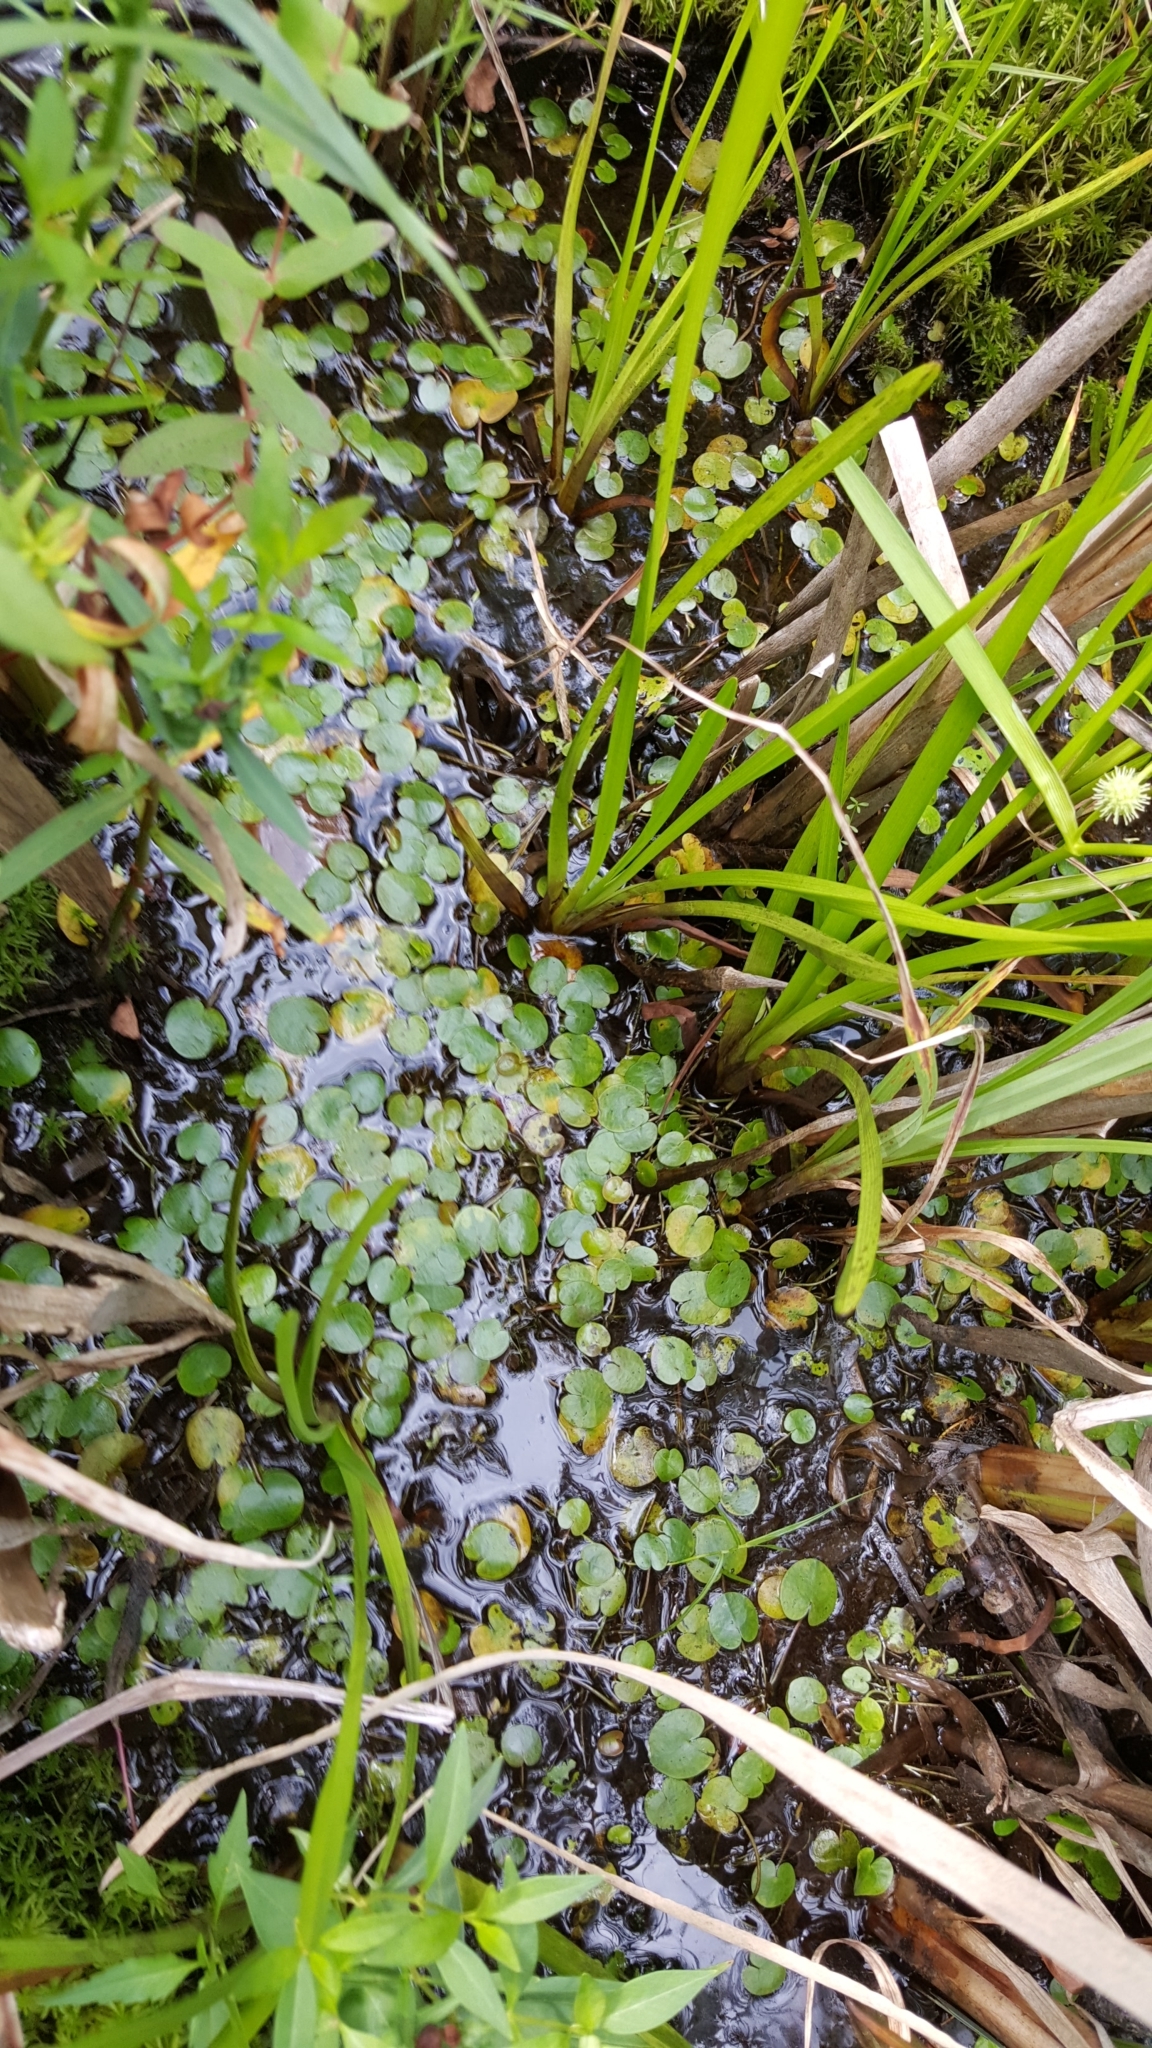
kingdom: Plantae
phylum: Tracheophyta
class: Liliopsida
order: Alismatales
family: Hydrocharitaceae
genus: Hydrocharis
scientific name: Hydrocharis morsus-ranae
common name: Frogbit
